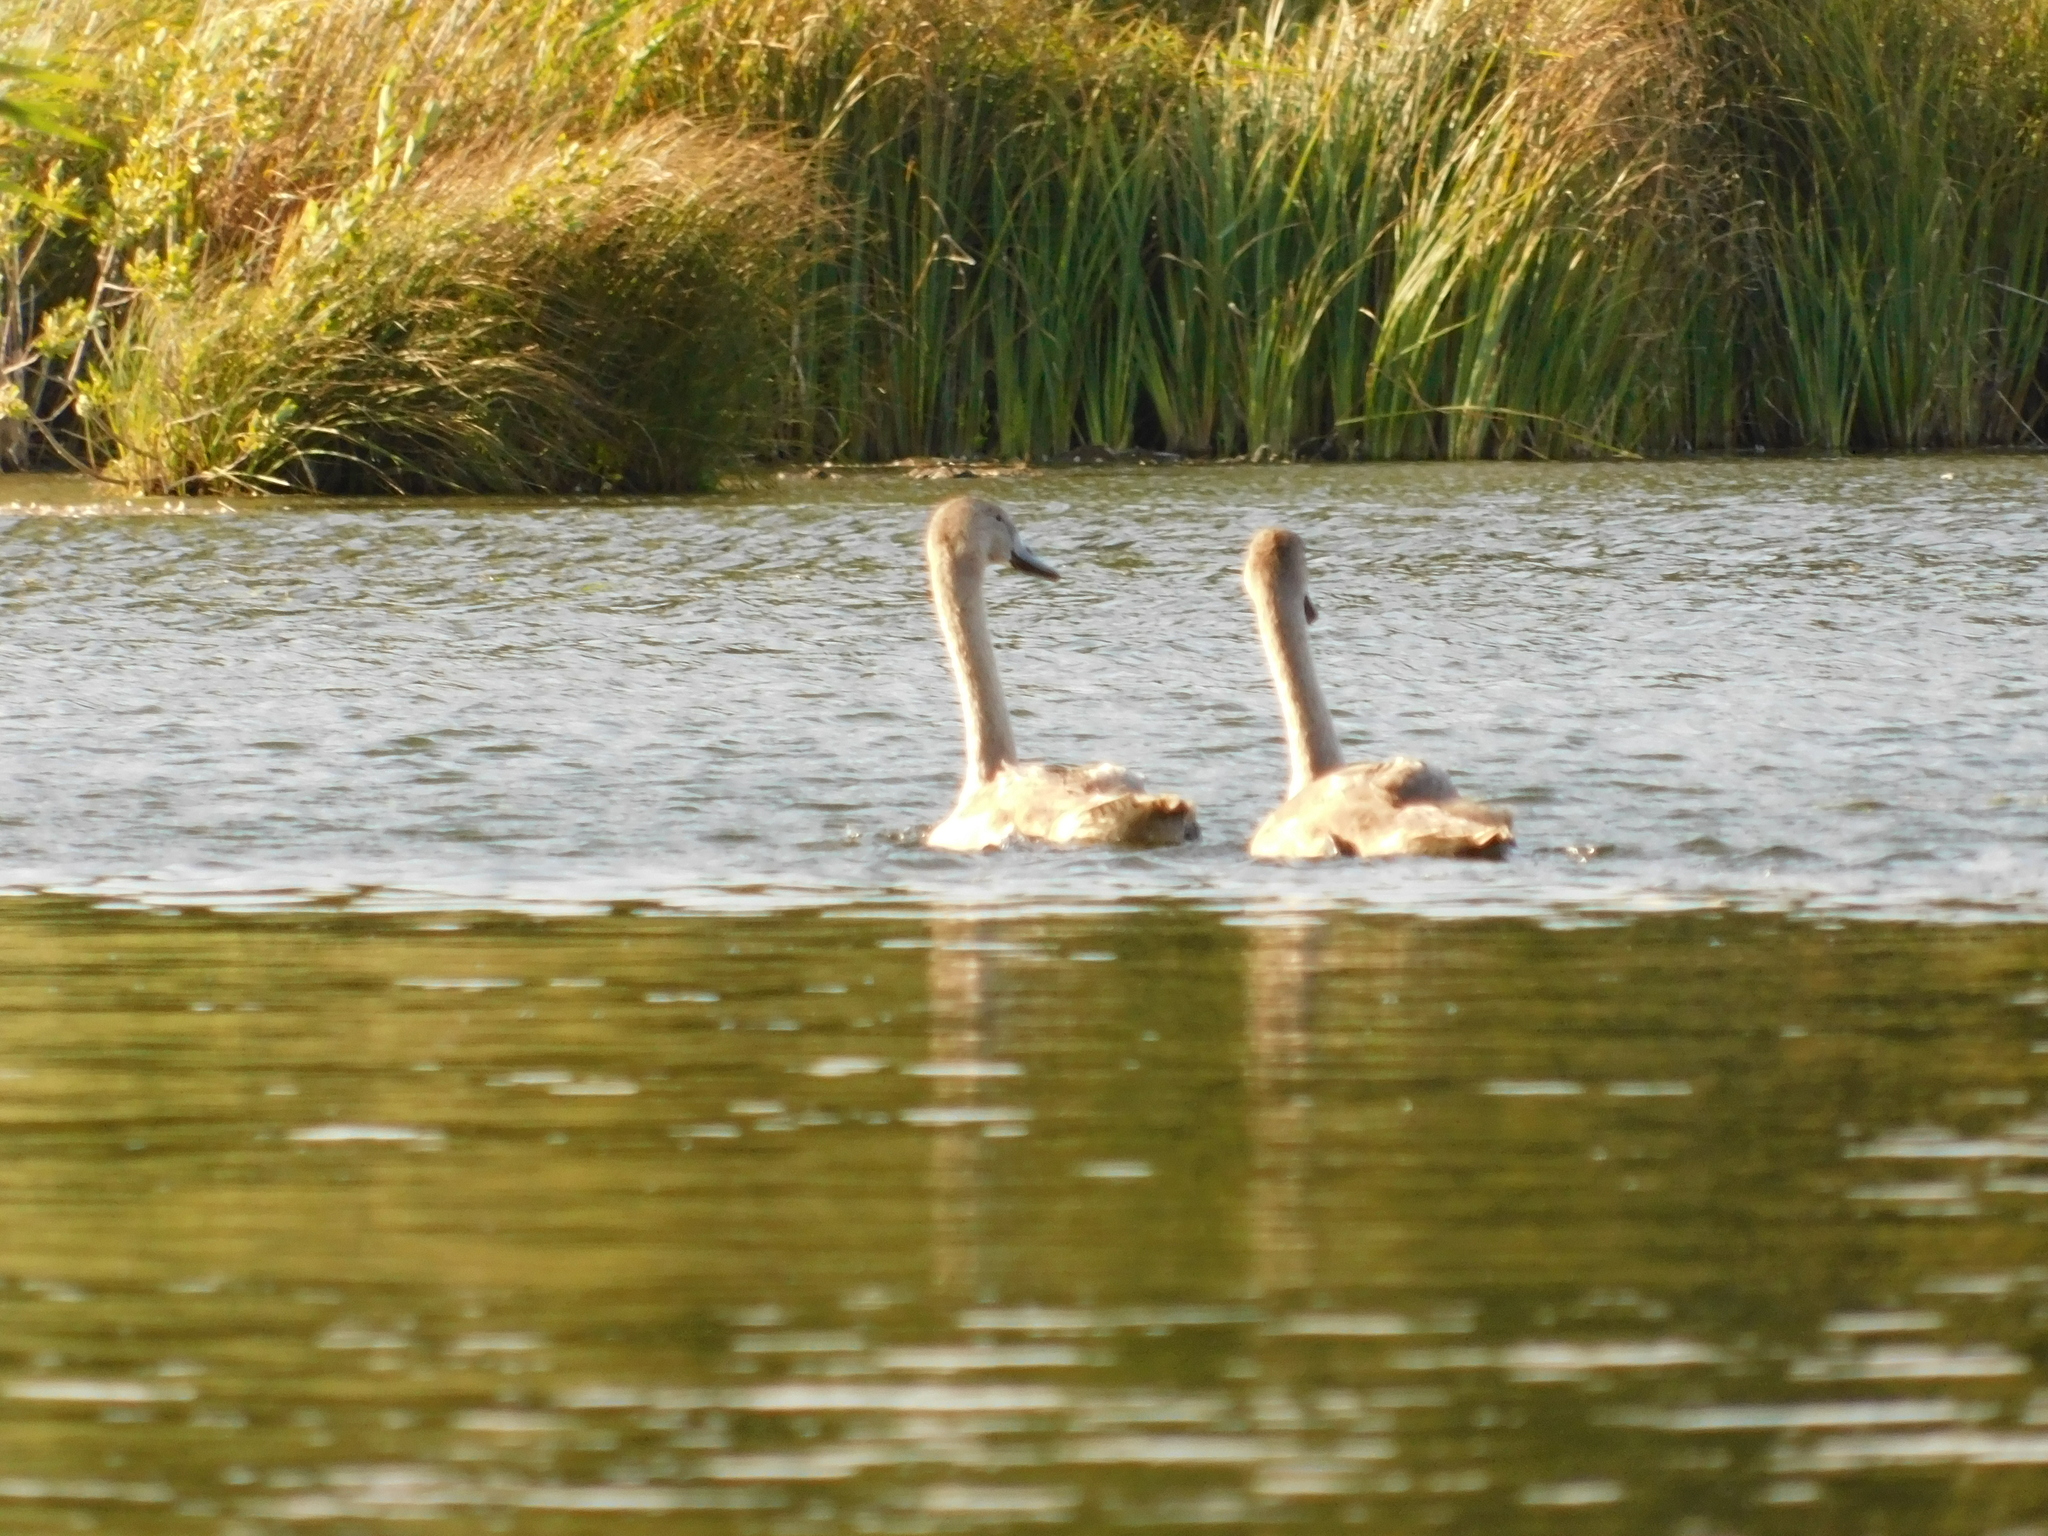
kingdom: Animalia
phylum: Chordata
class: Aves
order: Anseriformes
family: Anatidae
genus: Cygnus
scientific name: Cygnus olor
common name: Mute swan
